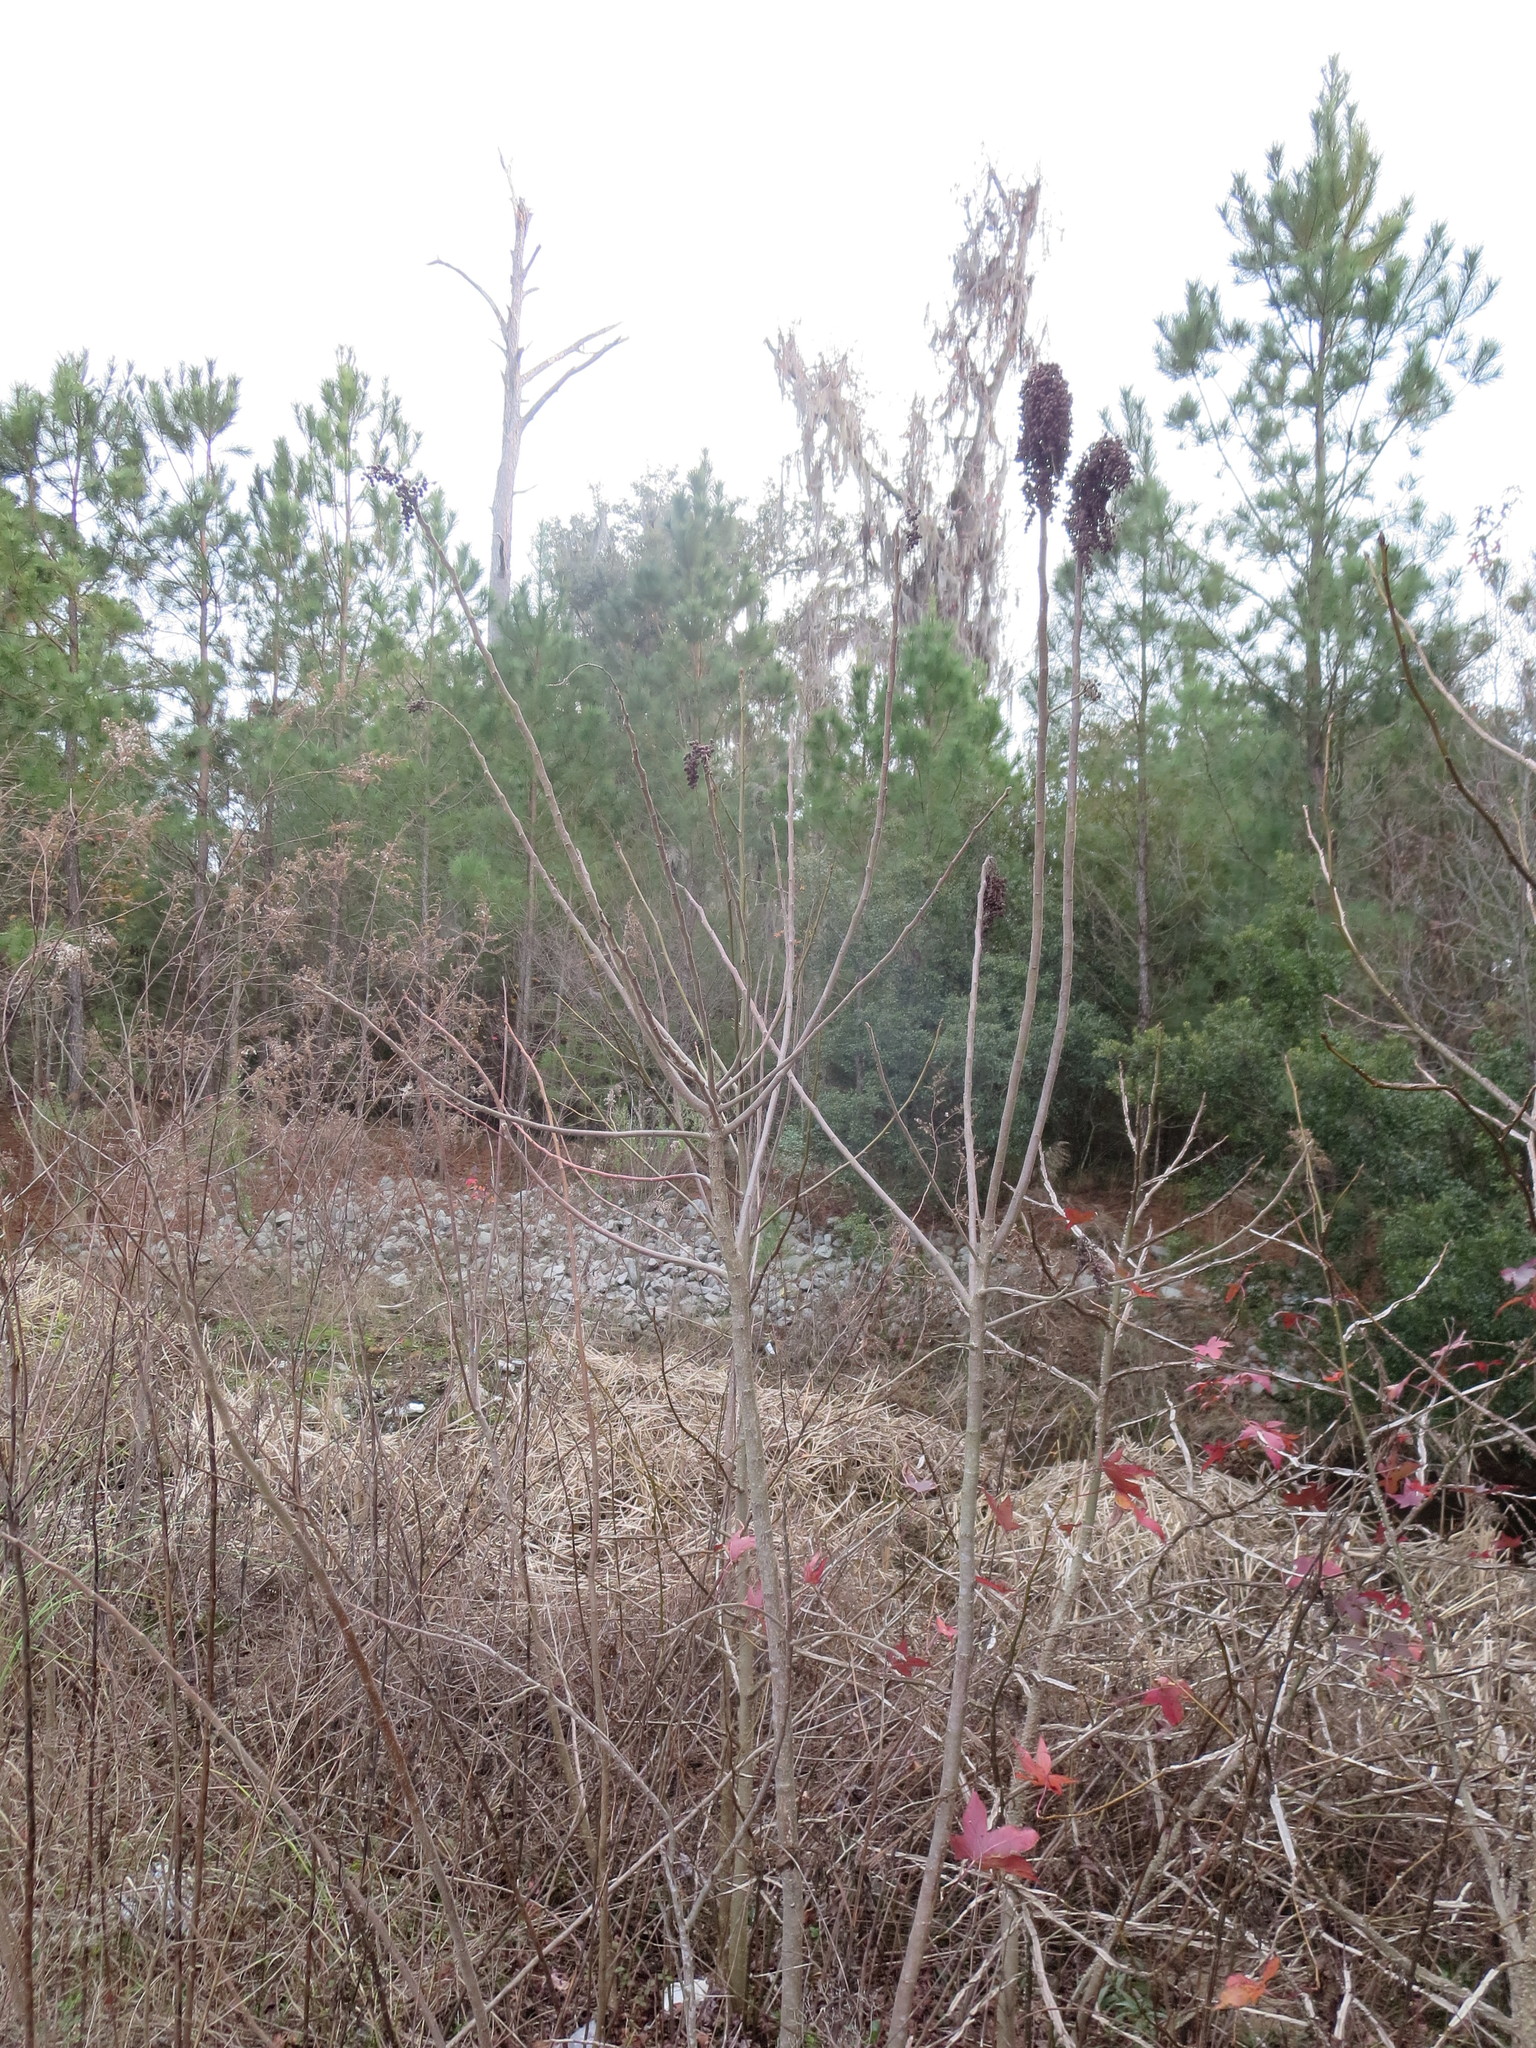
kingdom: Plantae
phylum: Tracheophyta
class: Magnoliopsida
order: Sapindales
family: Anacardiaceae
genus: Rhus
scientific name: Rhus copallina
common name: Shining sumac
